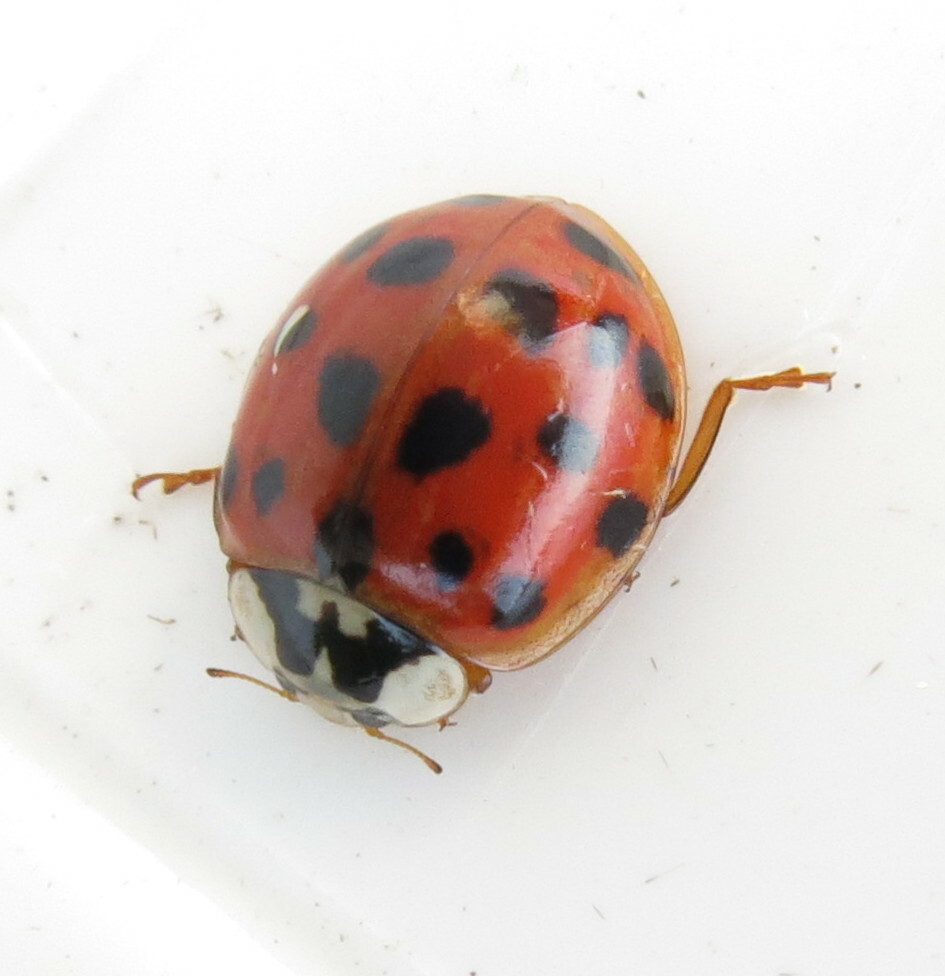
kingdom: Animalia
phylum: Arthropoda
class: Insecta
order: Coleoptera
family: Coccinellidae
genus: Harmonia
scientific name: Harmonia axyridis
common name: Harlequin ladybird
